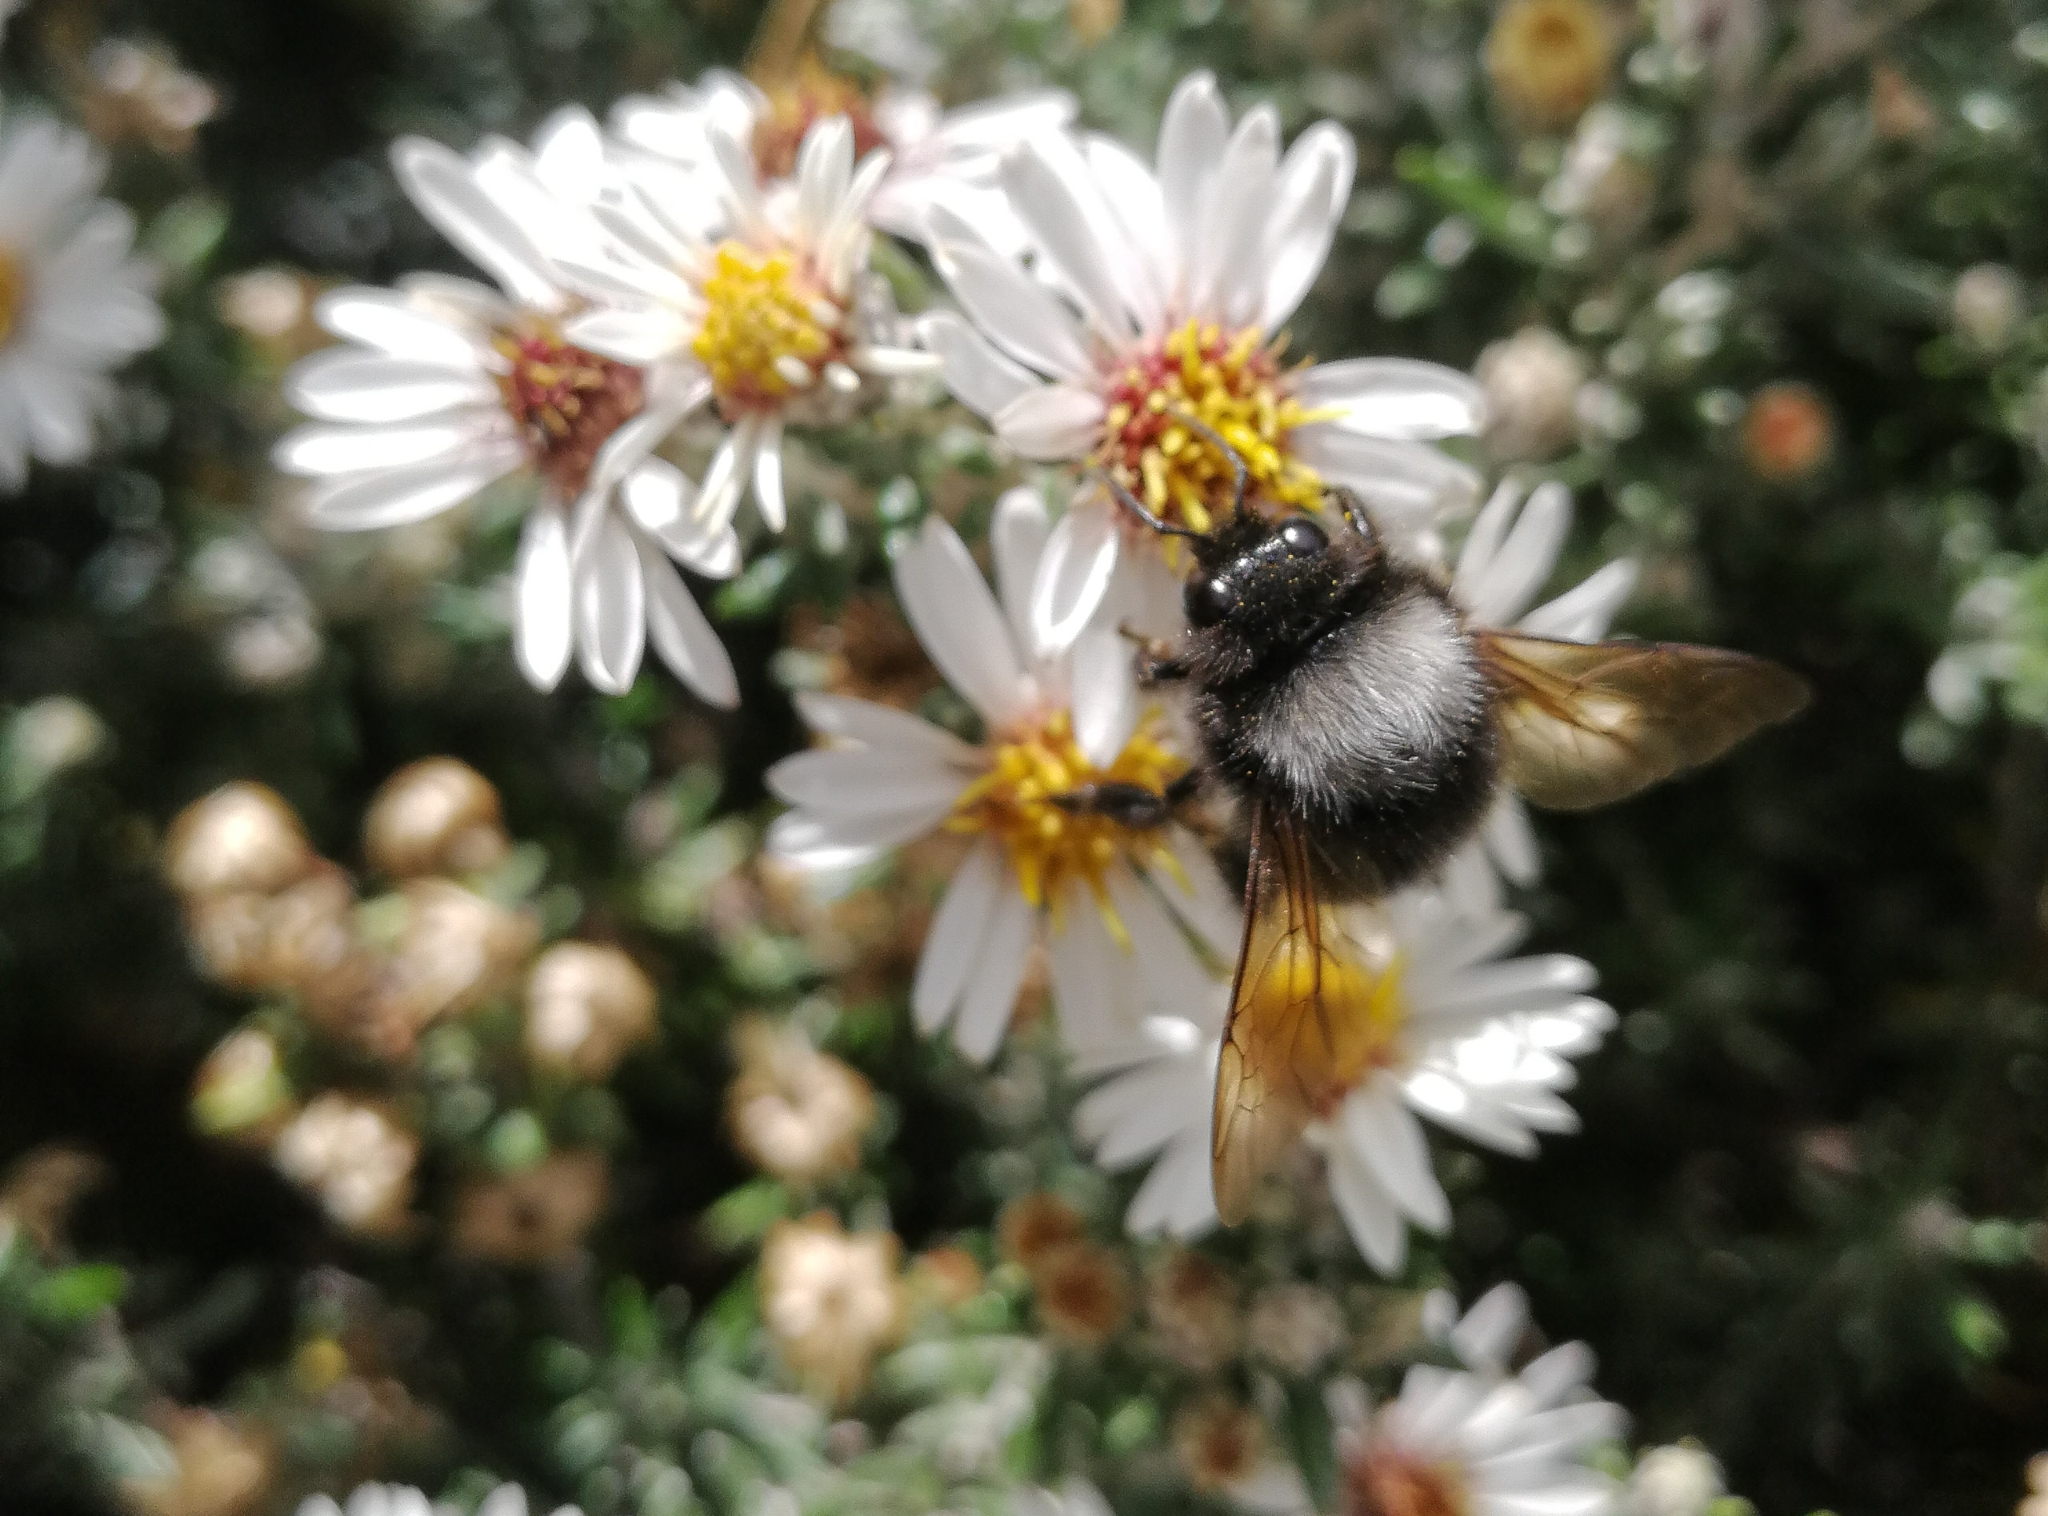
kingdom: Animalia
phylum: Arthropoda
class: Insecta
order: Hymenoptera
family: Apidae
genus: Bombus
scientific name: Bombus funebris
